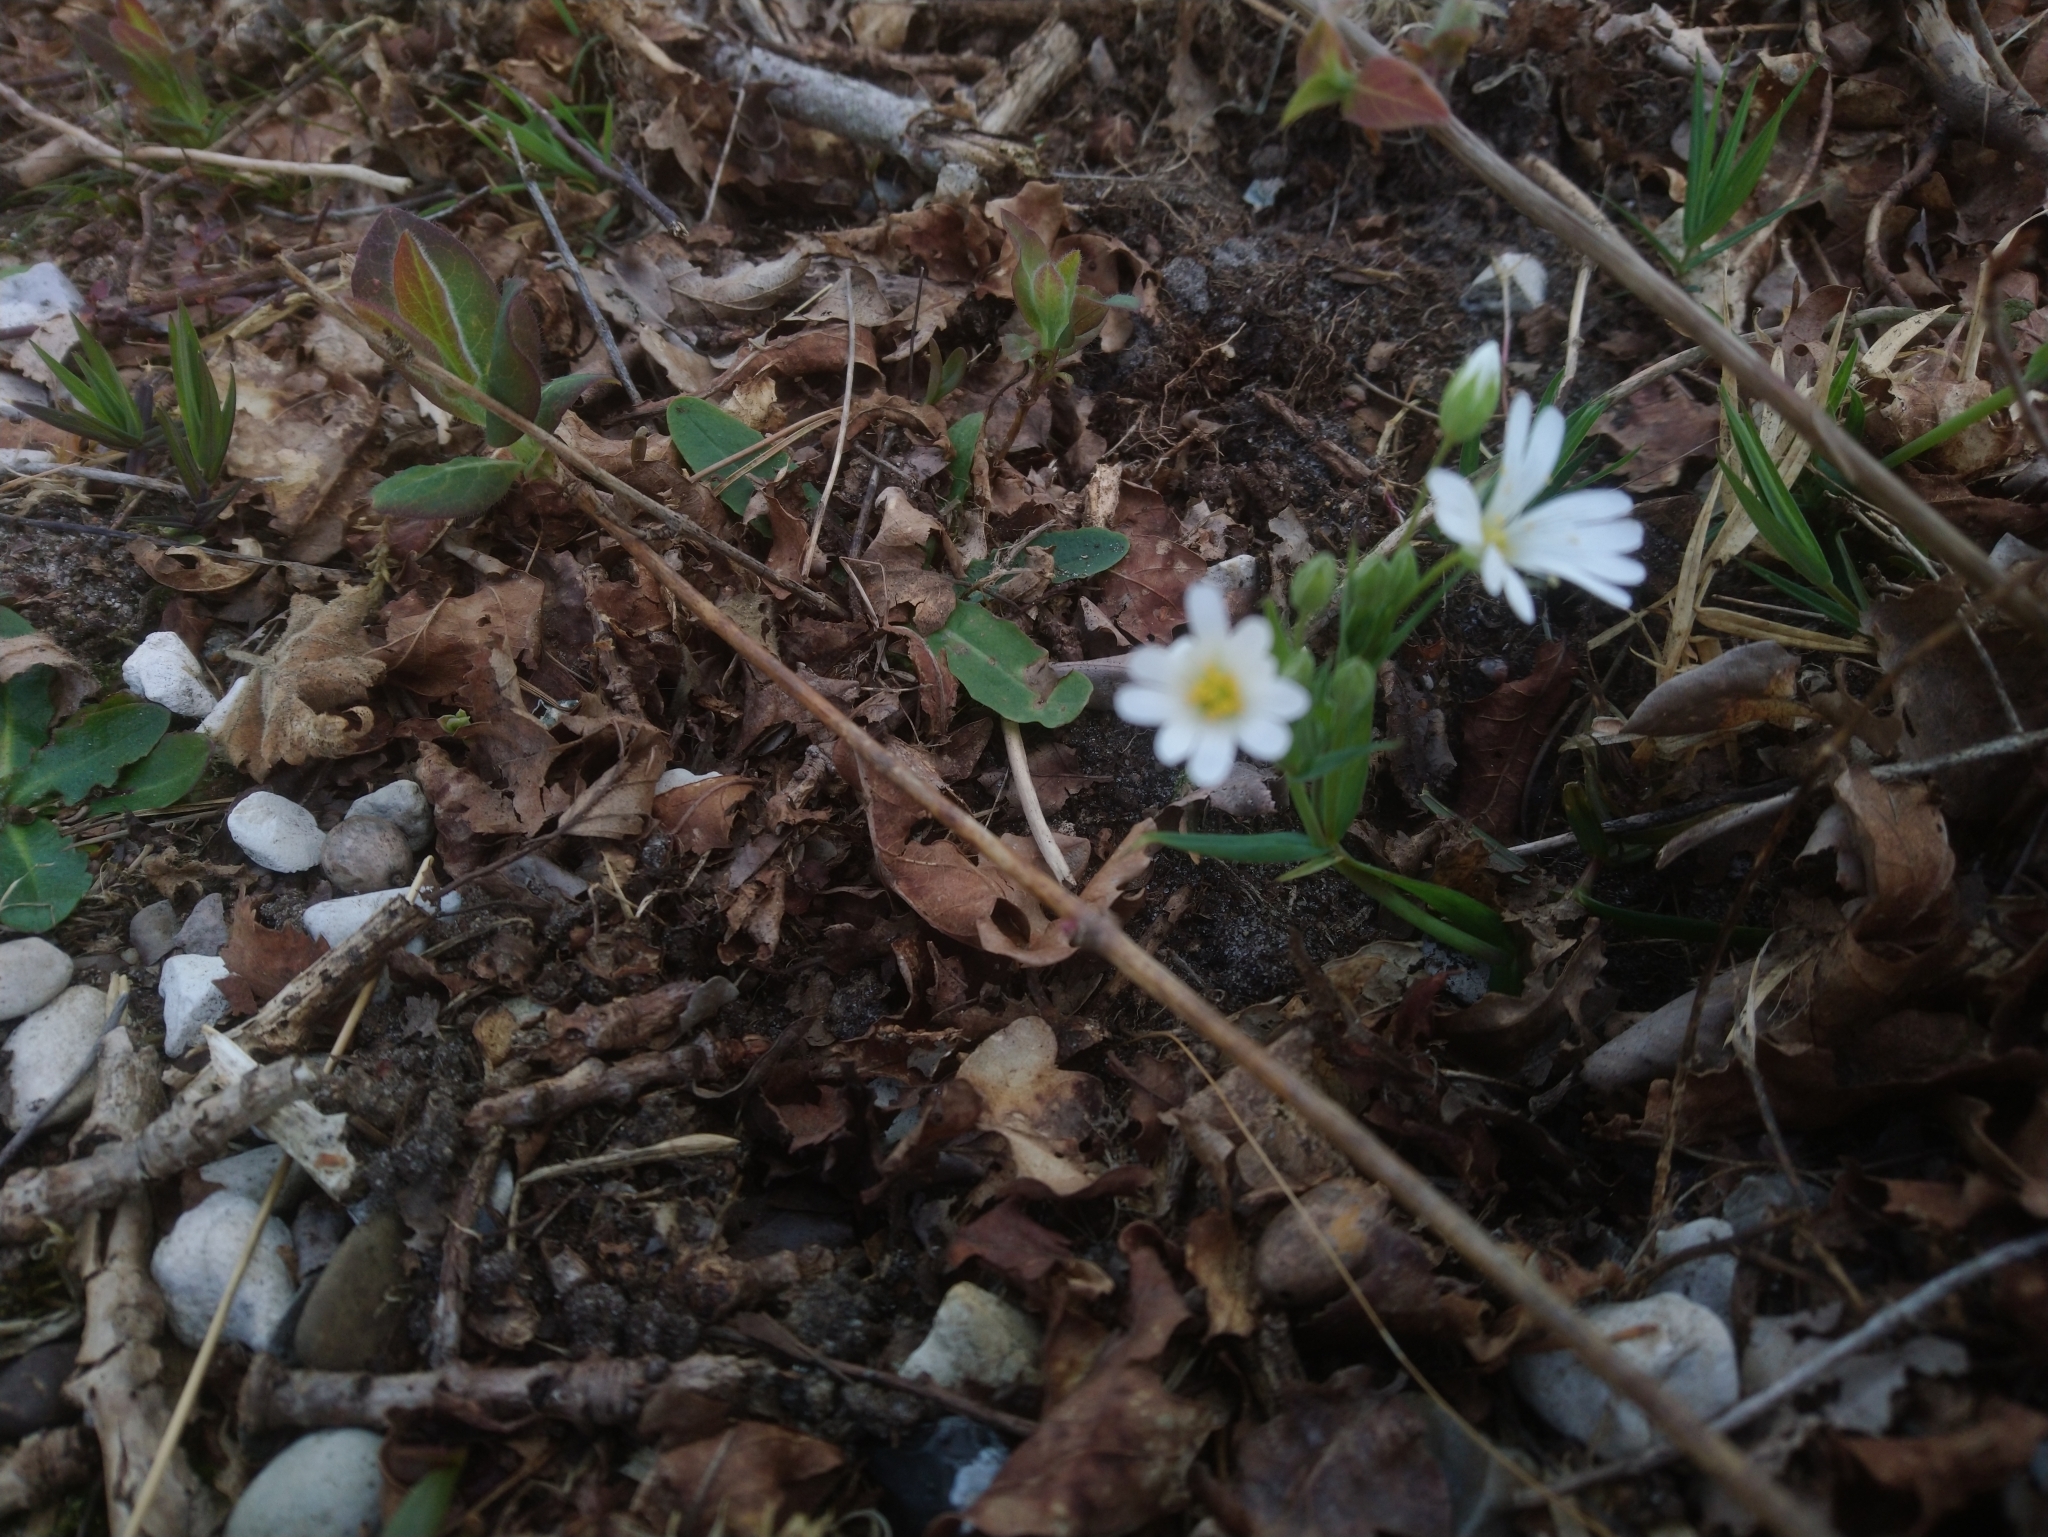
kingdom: Plantae
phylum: Tracheophyta
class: Magnoliopsida
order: Caryophyllales
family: Caryophyllaceae
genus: Rabelera
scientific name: Rabelera holostea
